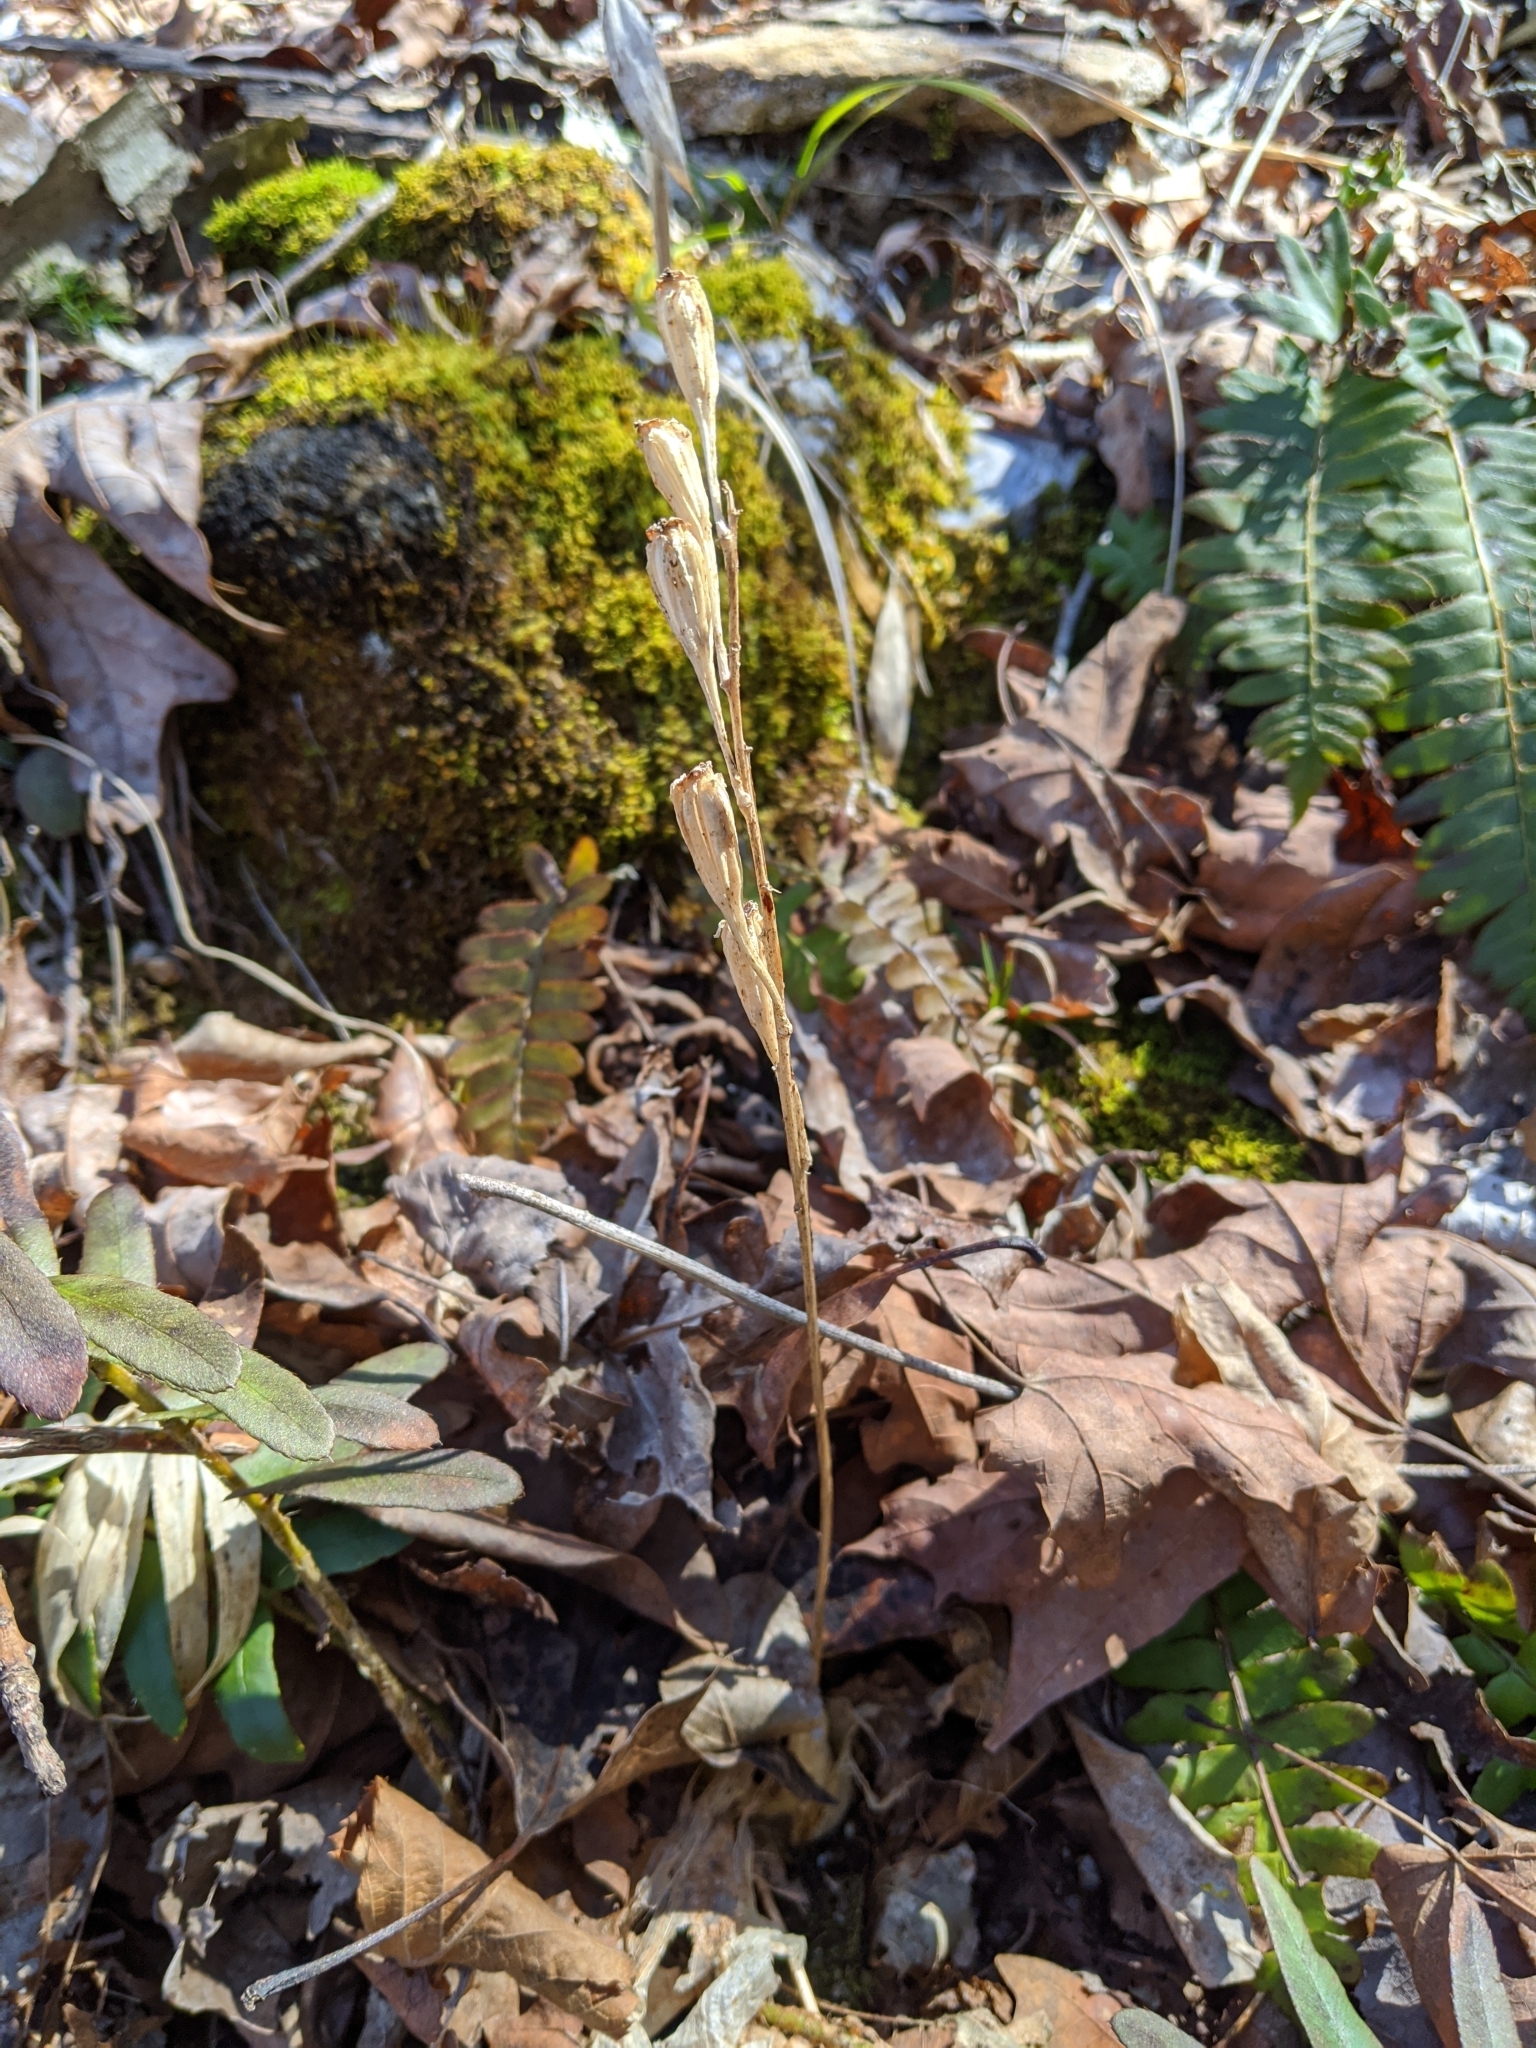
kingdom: Plantae
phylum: Tracheophyta
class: Liliopsida
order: Asparagales
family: Orchidaceae
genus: Liparis
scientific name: Liparis liliifolia
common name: Brown wide-lip orchid
